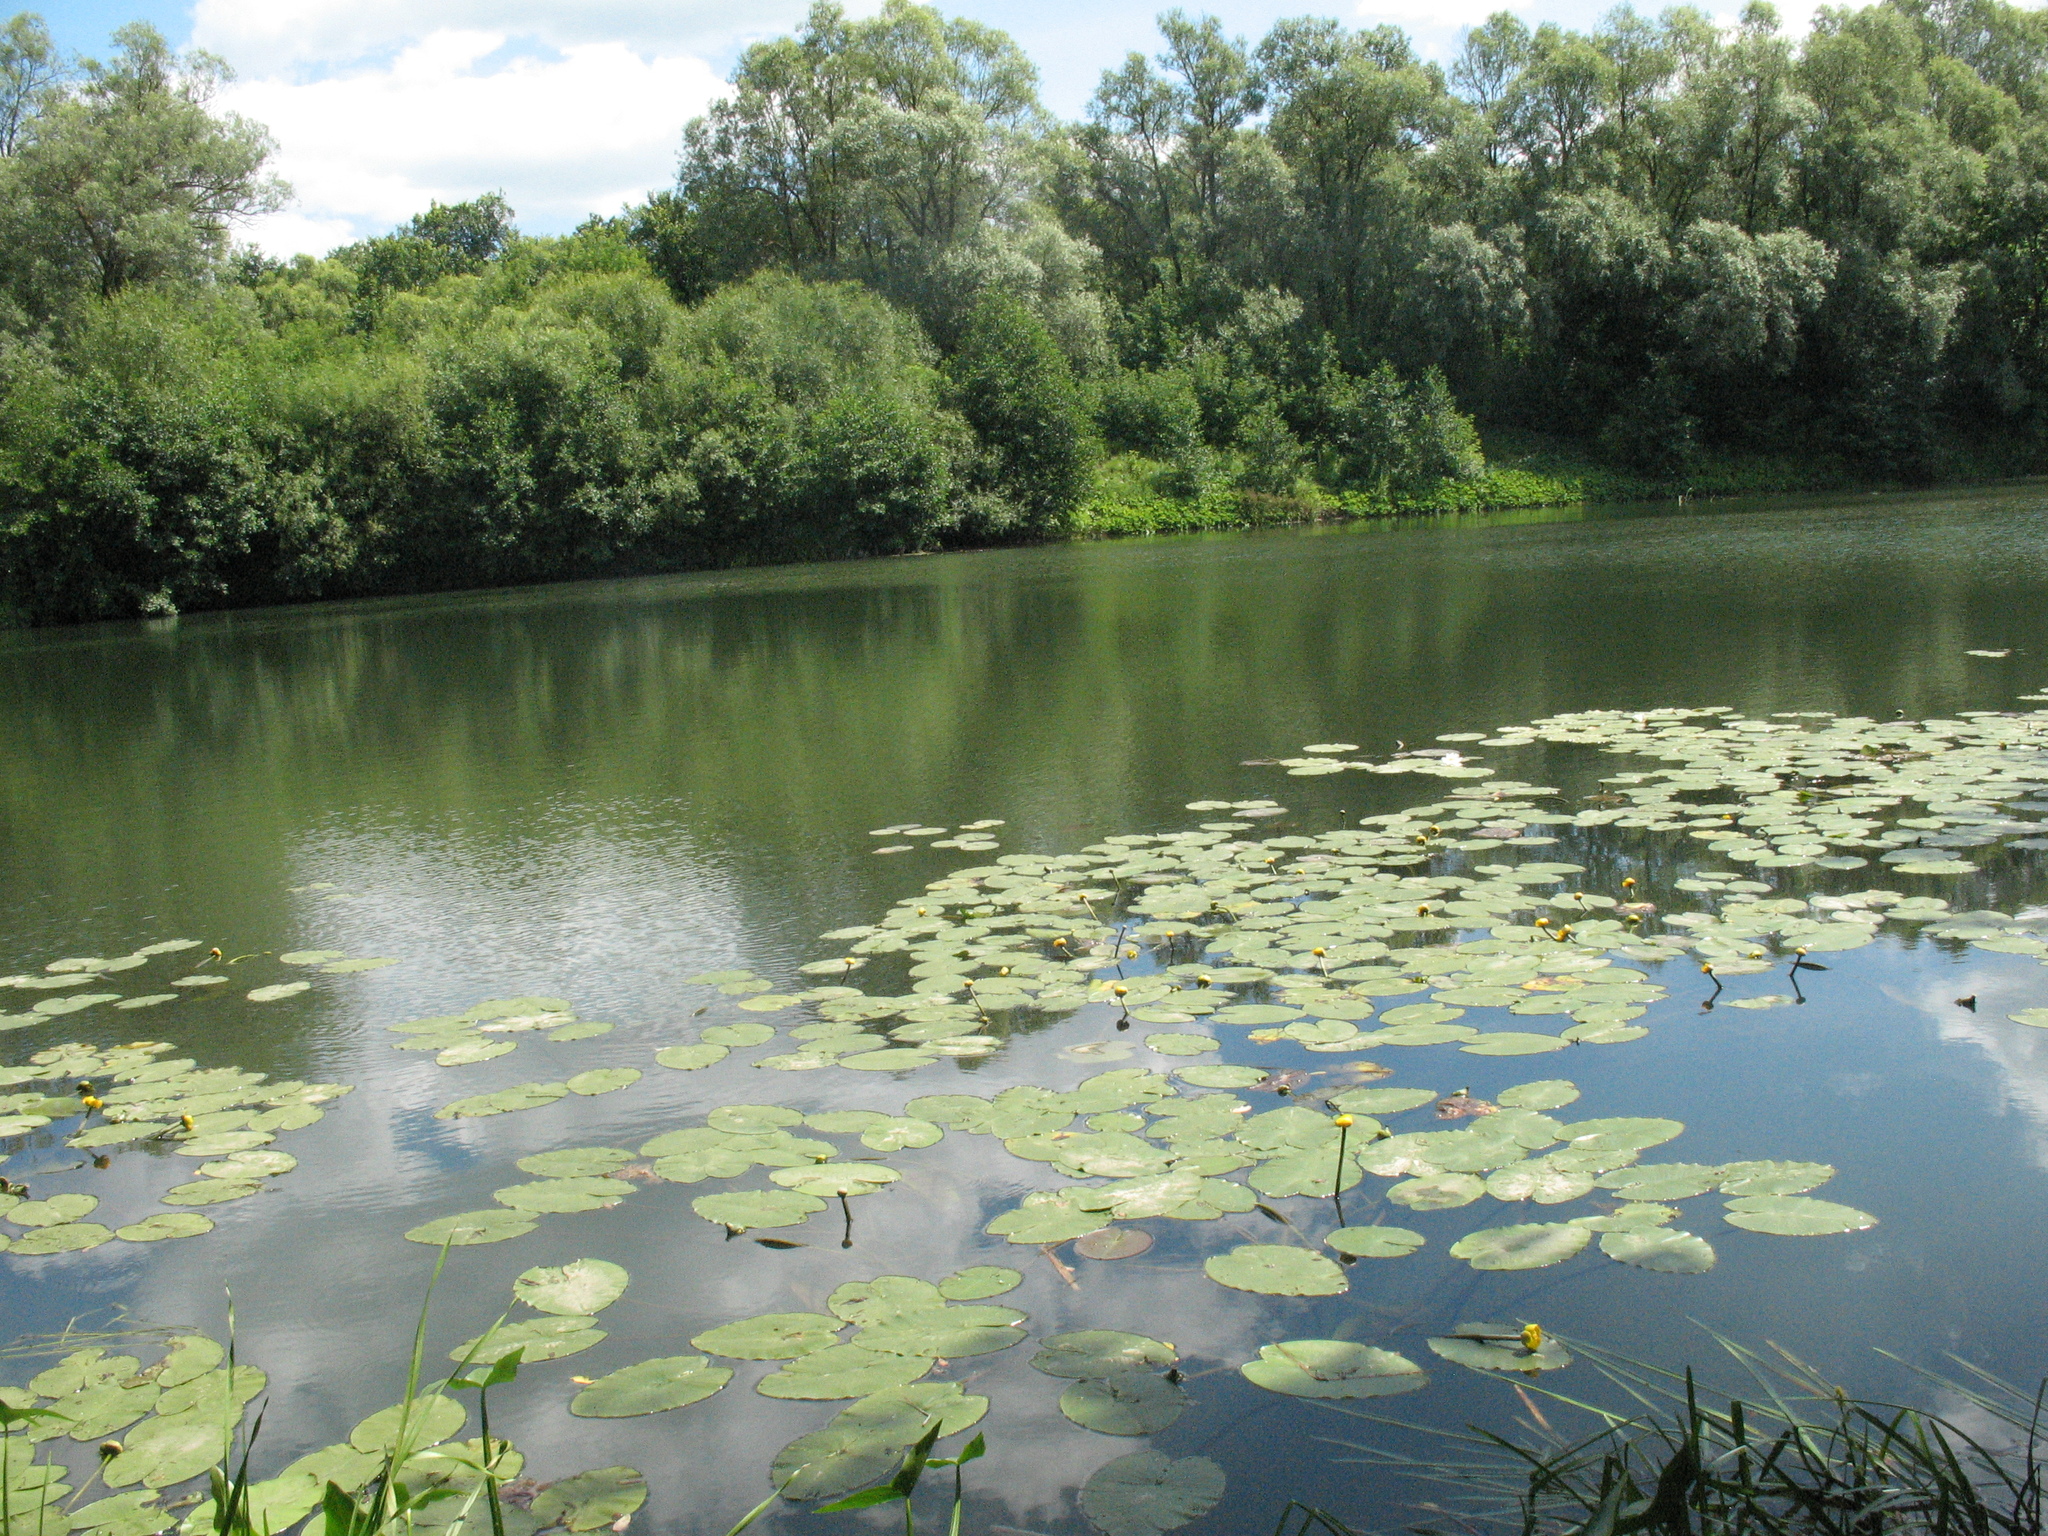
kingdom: Plantae
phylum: Tracheophyta
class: Magnoliopsida
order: Nymphaeales
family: Nymphaeaceae
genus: Nuphar
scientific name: Nuphar lutea
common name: Yellow water-lily
